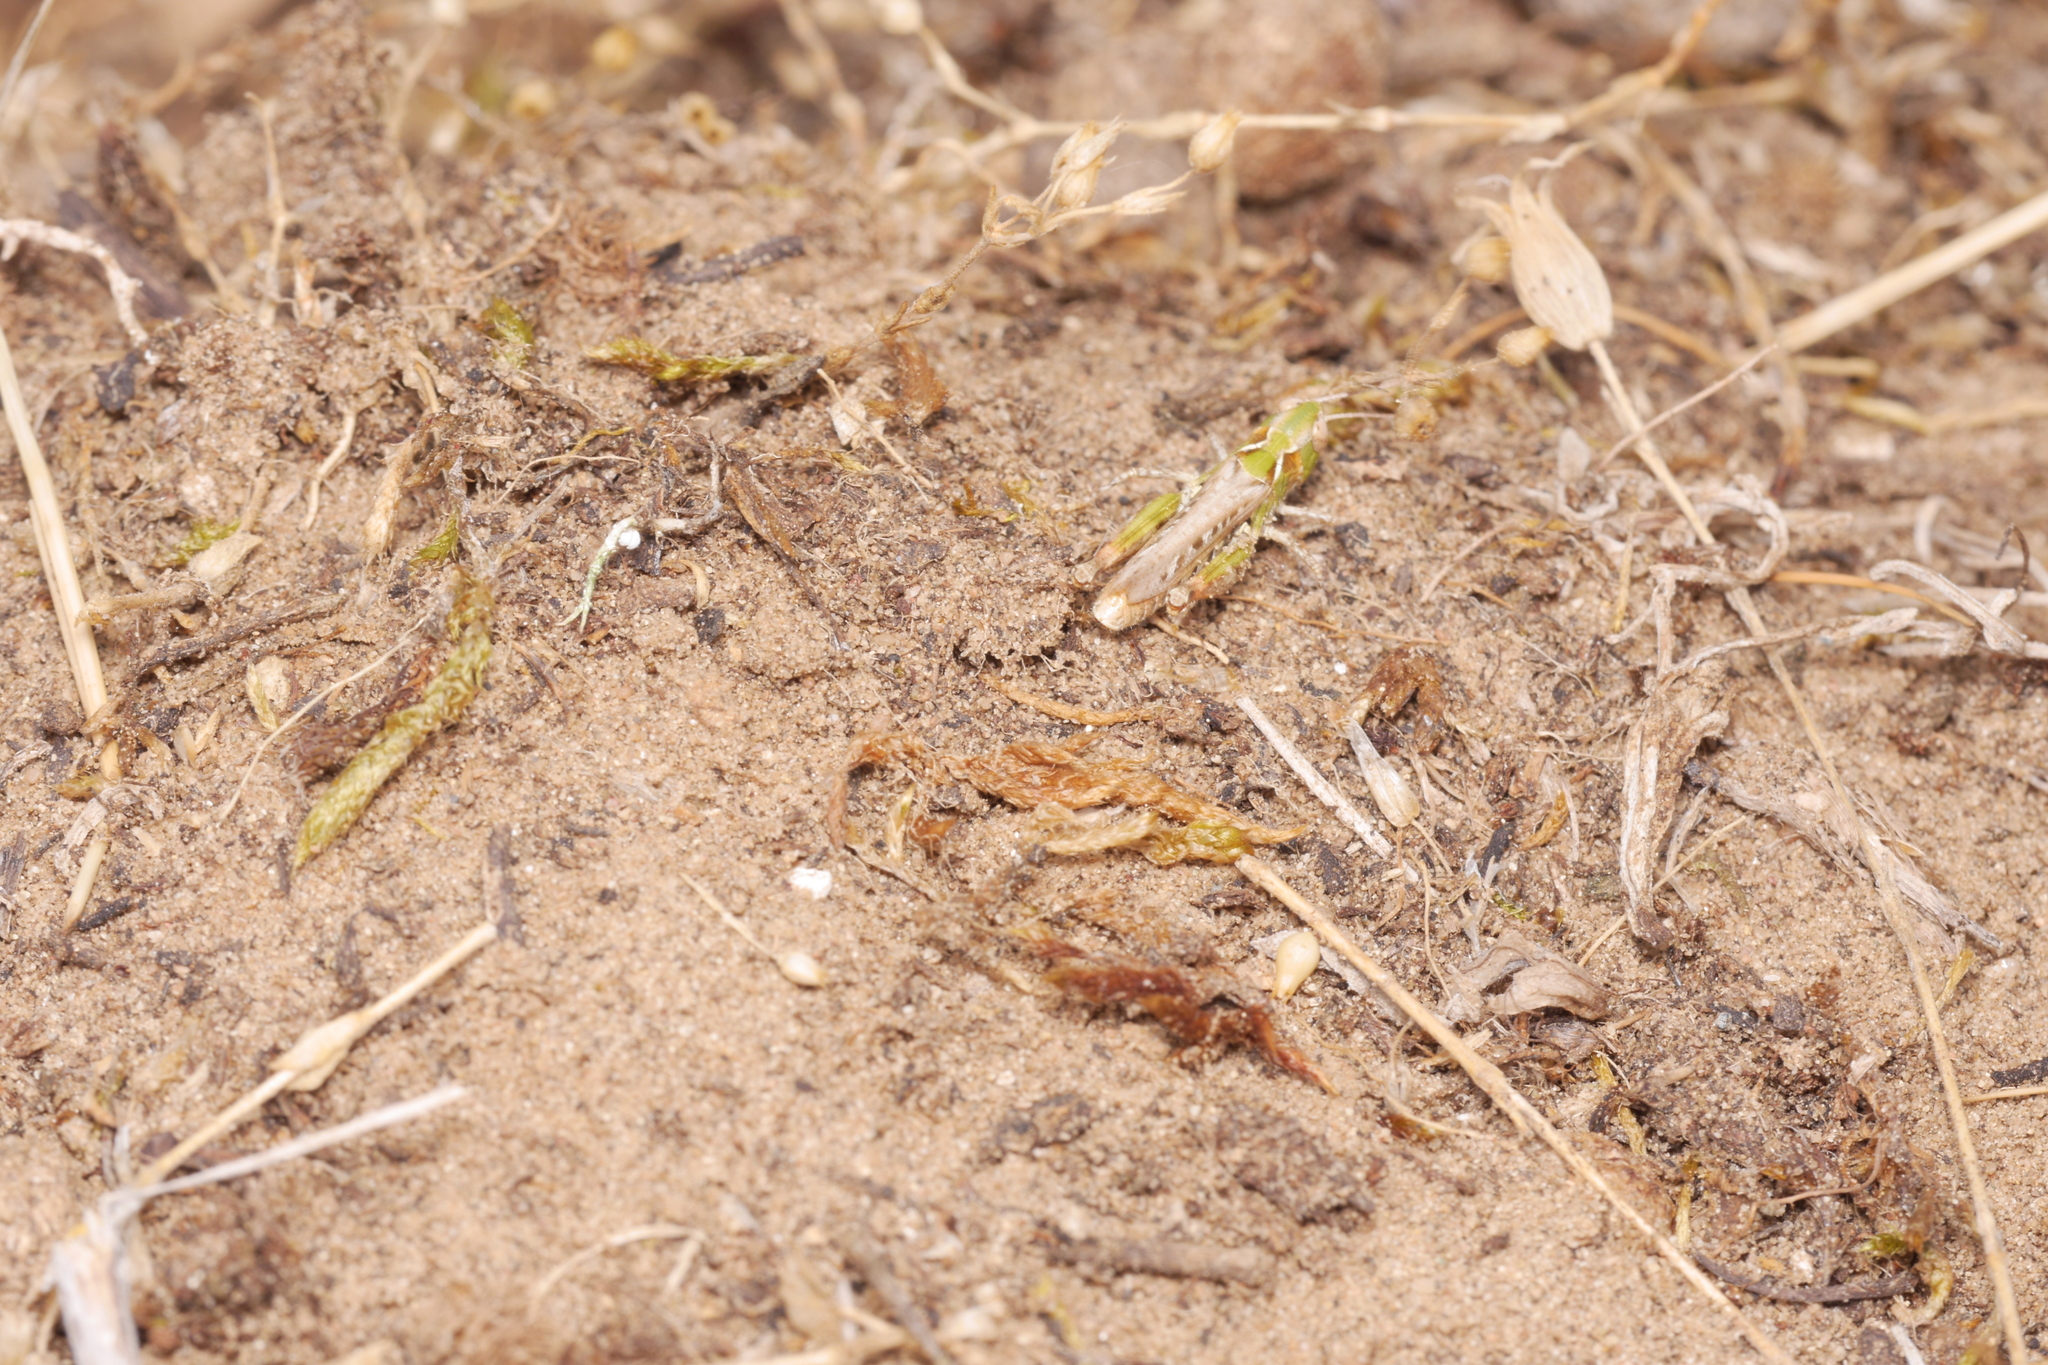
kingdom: Animalia
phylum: Arthropoda
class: Insecta
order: Orthoptera
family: Acrididae
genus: Myrmeleotettix
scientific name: Myrmeleotettix maculatus
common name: Mottled grasshopper
